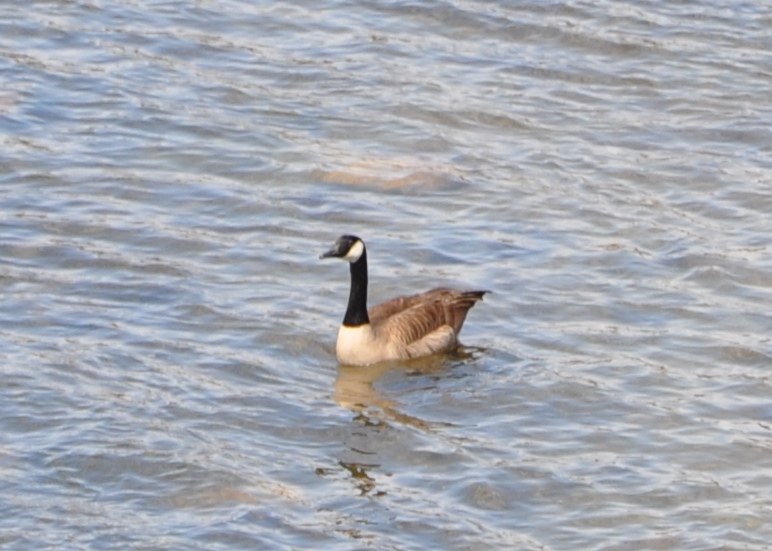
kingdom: Animalia
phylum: Chordata
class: Aves
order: Anseriformes
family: Anatidae
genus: Branta
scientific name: Branta canadensis
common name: Canada goose
